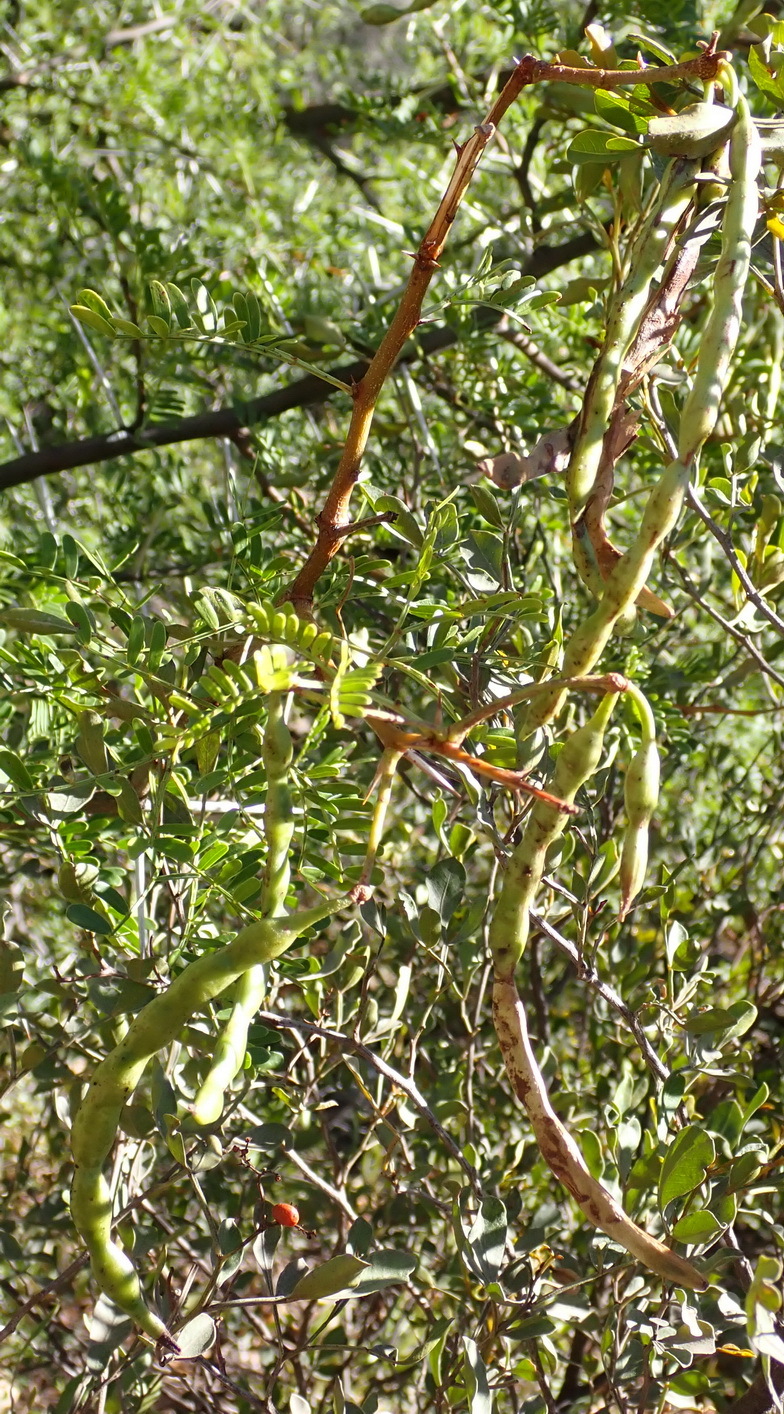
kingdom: Plantae
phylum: Tracheophyta
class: Magnoliopsida
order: Fabales
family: Fabaceae
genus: Vachellia
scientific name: Vachellia karroo
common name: Sweet thorn
